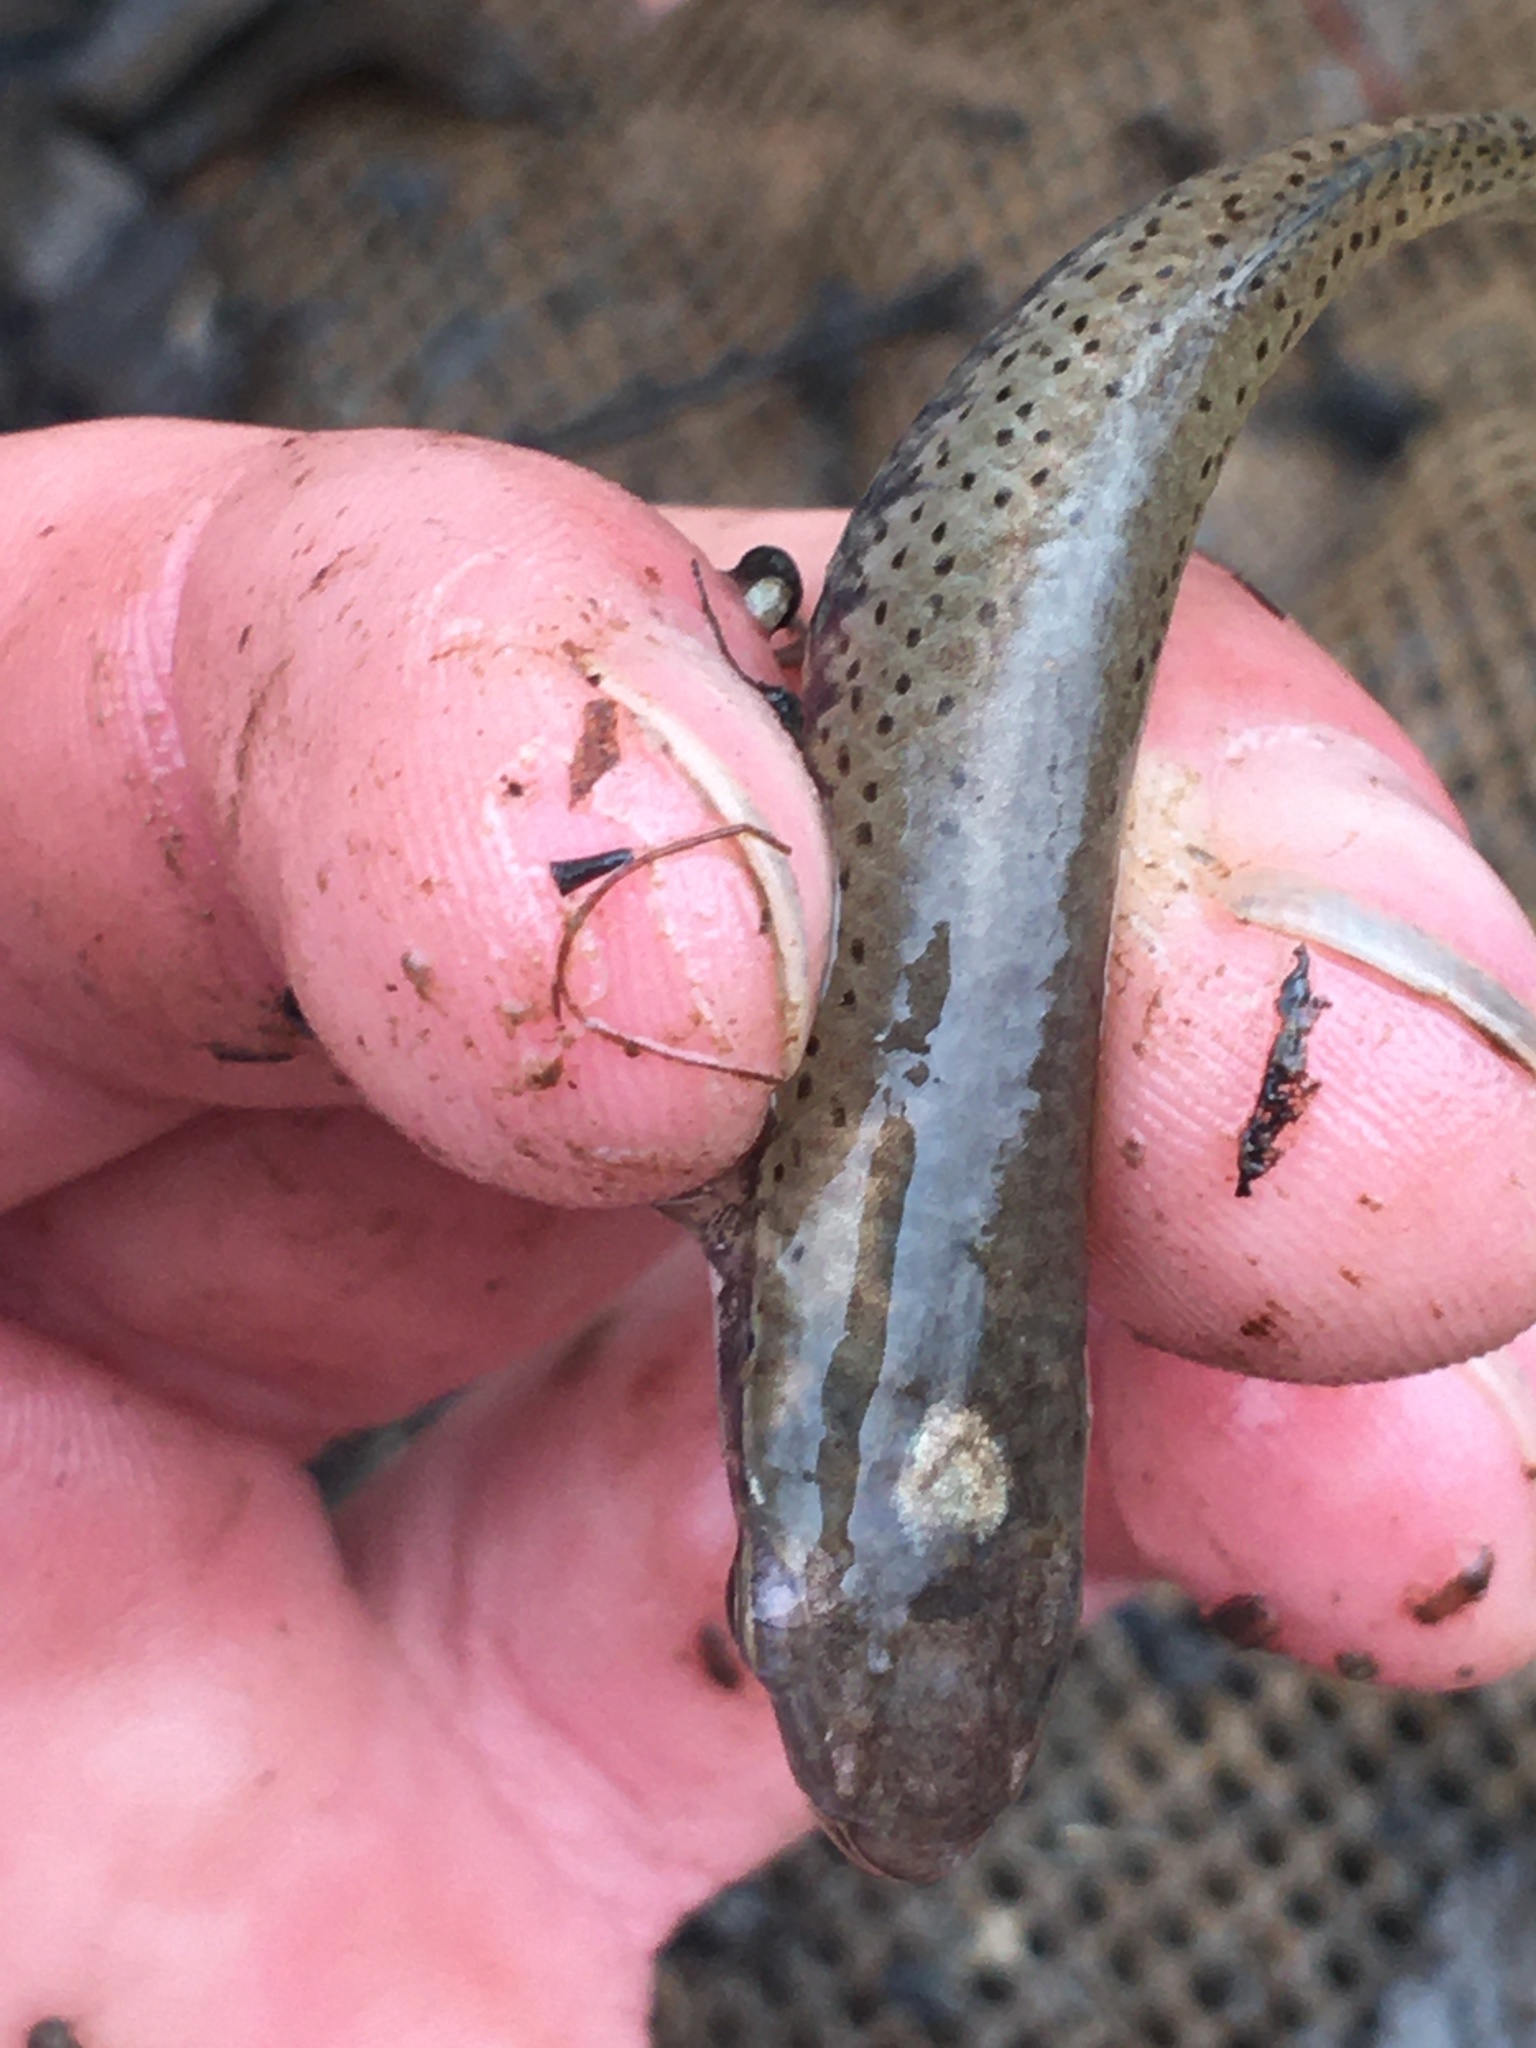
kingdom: Animalia
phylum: Chordata
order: Cyprinodontiformes
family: Fundulidae
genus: Fundulus
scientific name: Fundulus olivaceus
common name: Blackspotted topminnow
